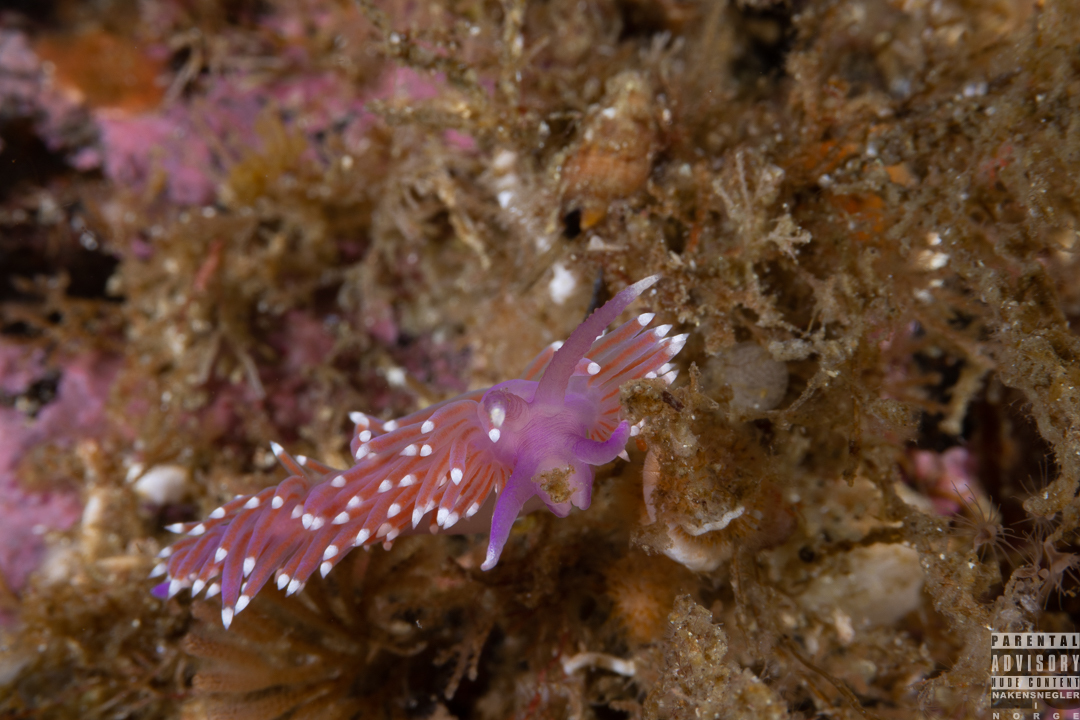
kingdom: Animalia
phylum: Mollusca
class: Gastropoda
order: Nudibranchia
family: Flabellinidae
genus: Edmundsella
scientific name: Edmundsella pedata
